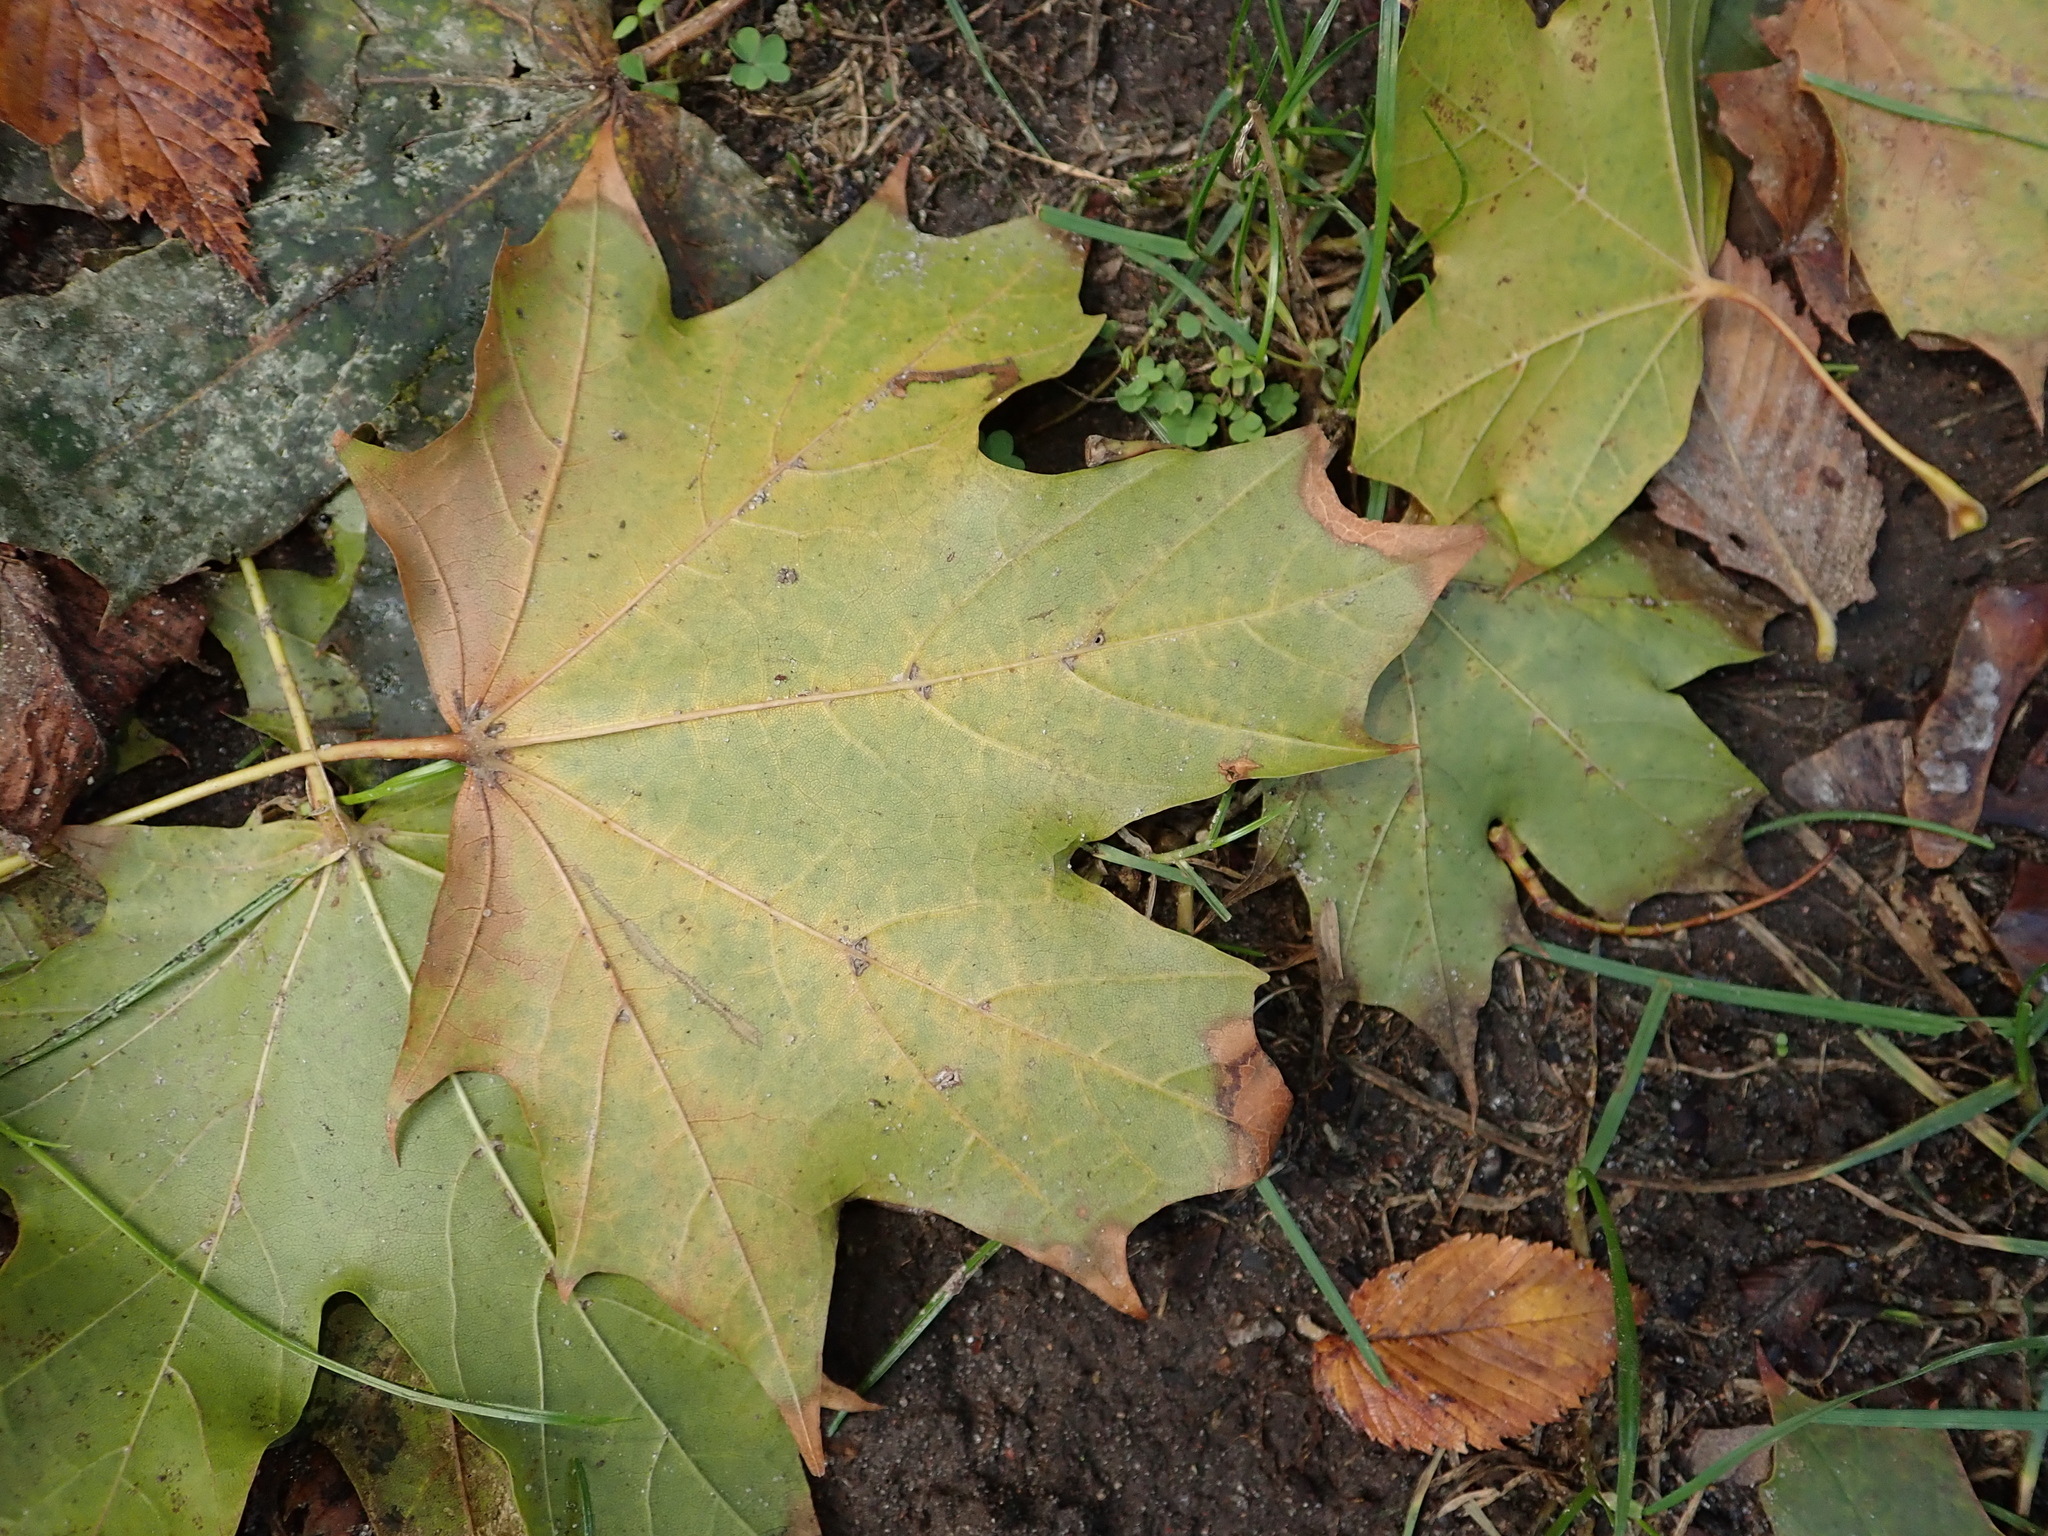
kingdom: Plantae
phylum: Tracheophyta
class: Magnoliopsida
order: Sapindales
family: Sapindaceae
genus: Acer
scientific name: Acer platanoides
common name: Norway maple
